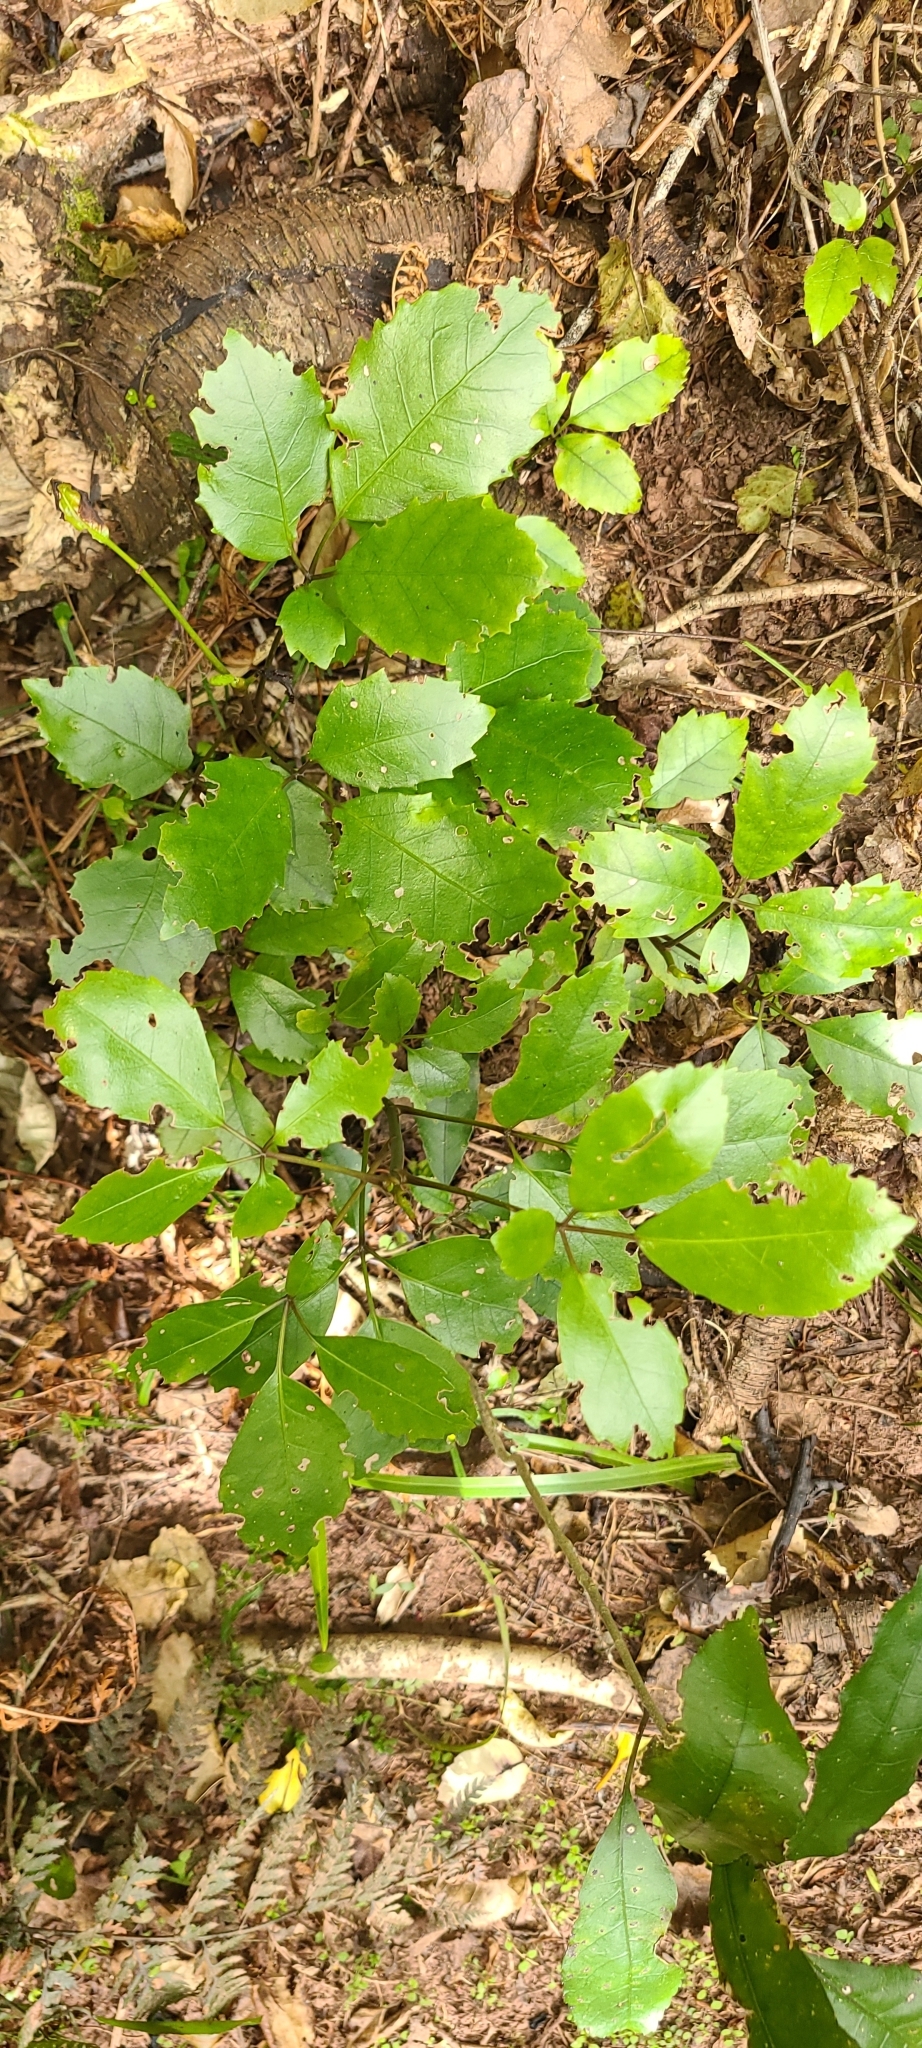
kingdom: Plantae
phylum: Tracheophyta
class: Magnoliopsida
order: Apiales
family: Araliaceae
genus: Neopanax
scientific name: Neopanax arboreus
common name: Five-fingers
